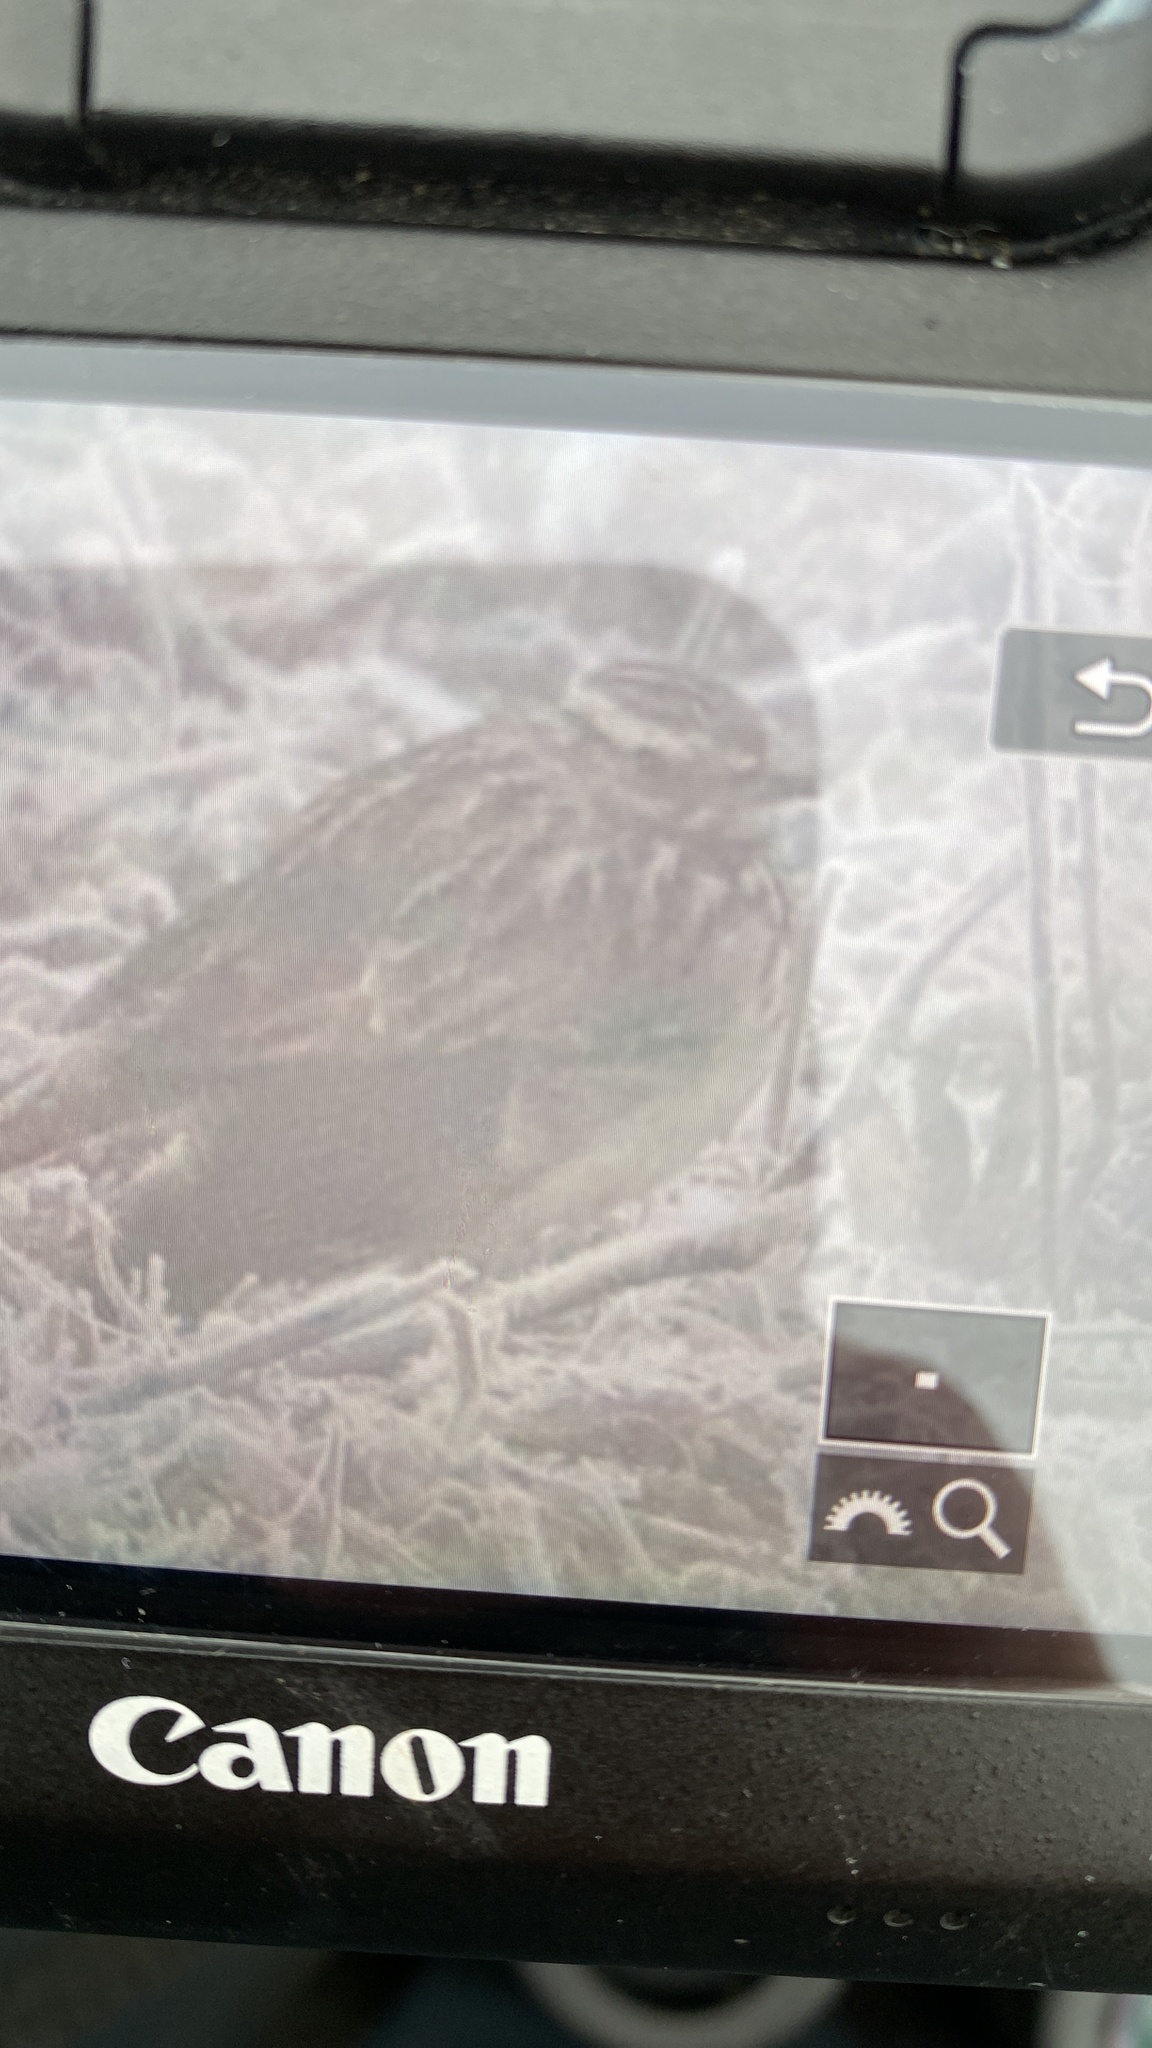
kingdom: Animalia
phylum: Chordata
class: Aves
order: Passeriformes
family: Alaudidae
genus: Lullula
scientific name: Lullula arborea
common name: Woodlark
